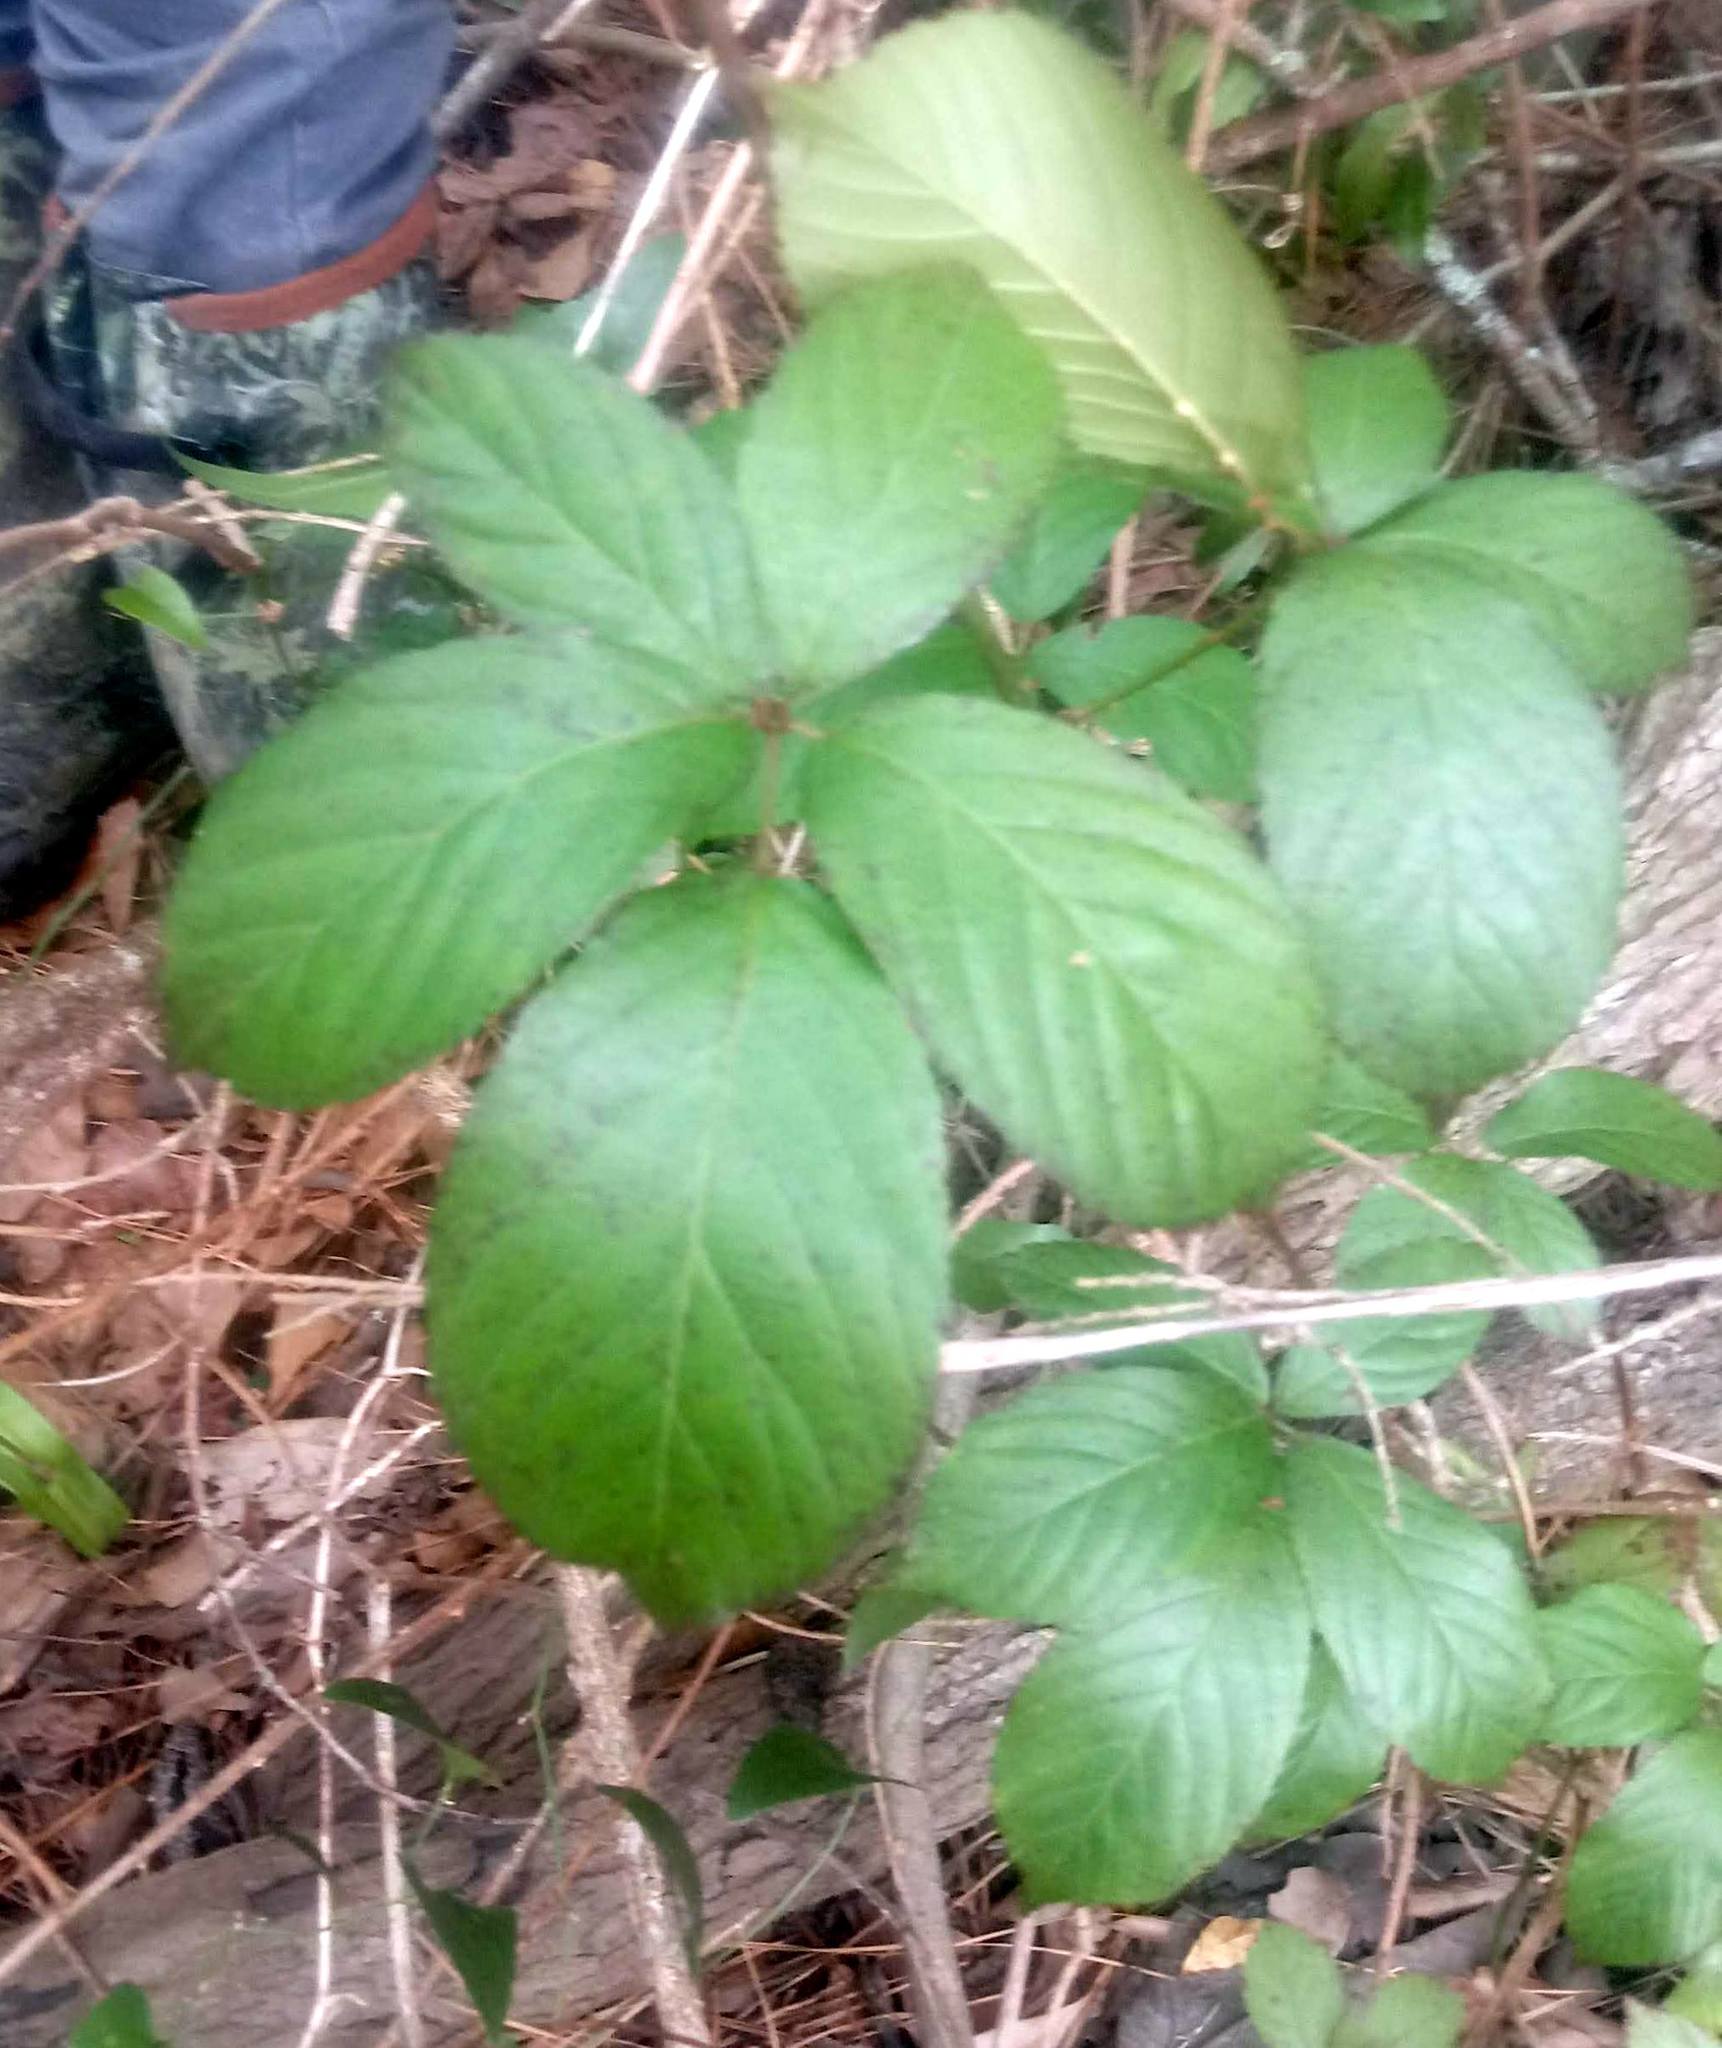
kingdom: Plantae
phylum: Tracheophyta
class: Magnoliopsida
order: Rosales
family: Rosaceae
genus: Rubus
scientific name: Rubus trivialis
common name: Southern dewberry
